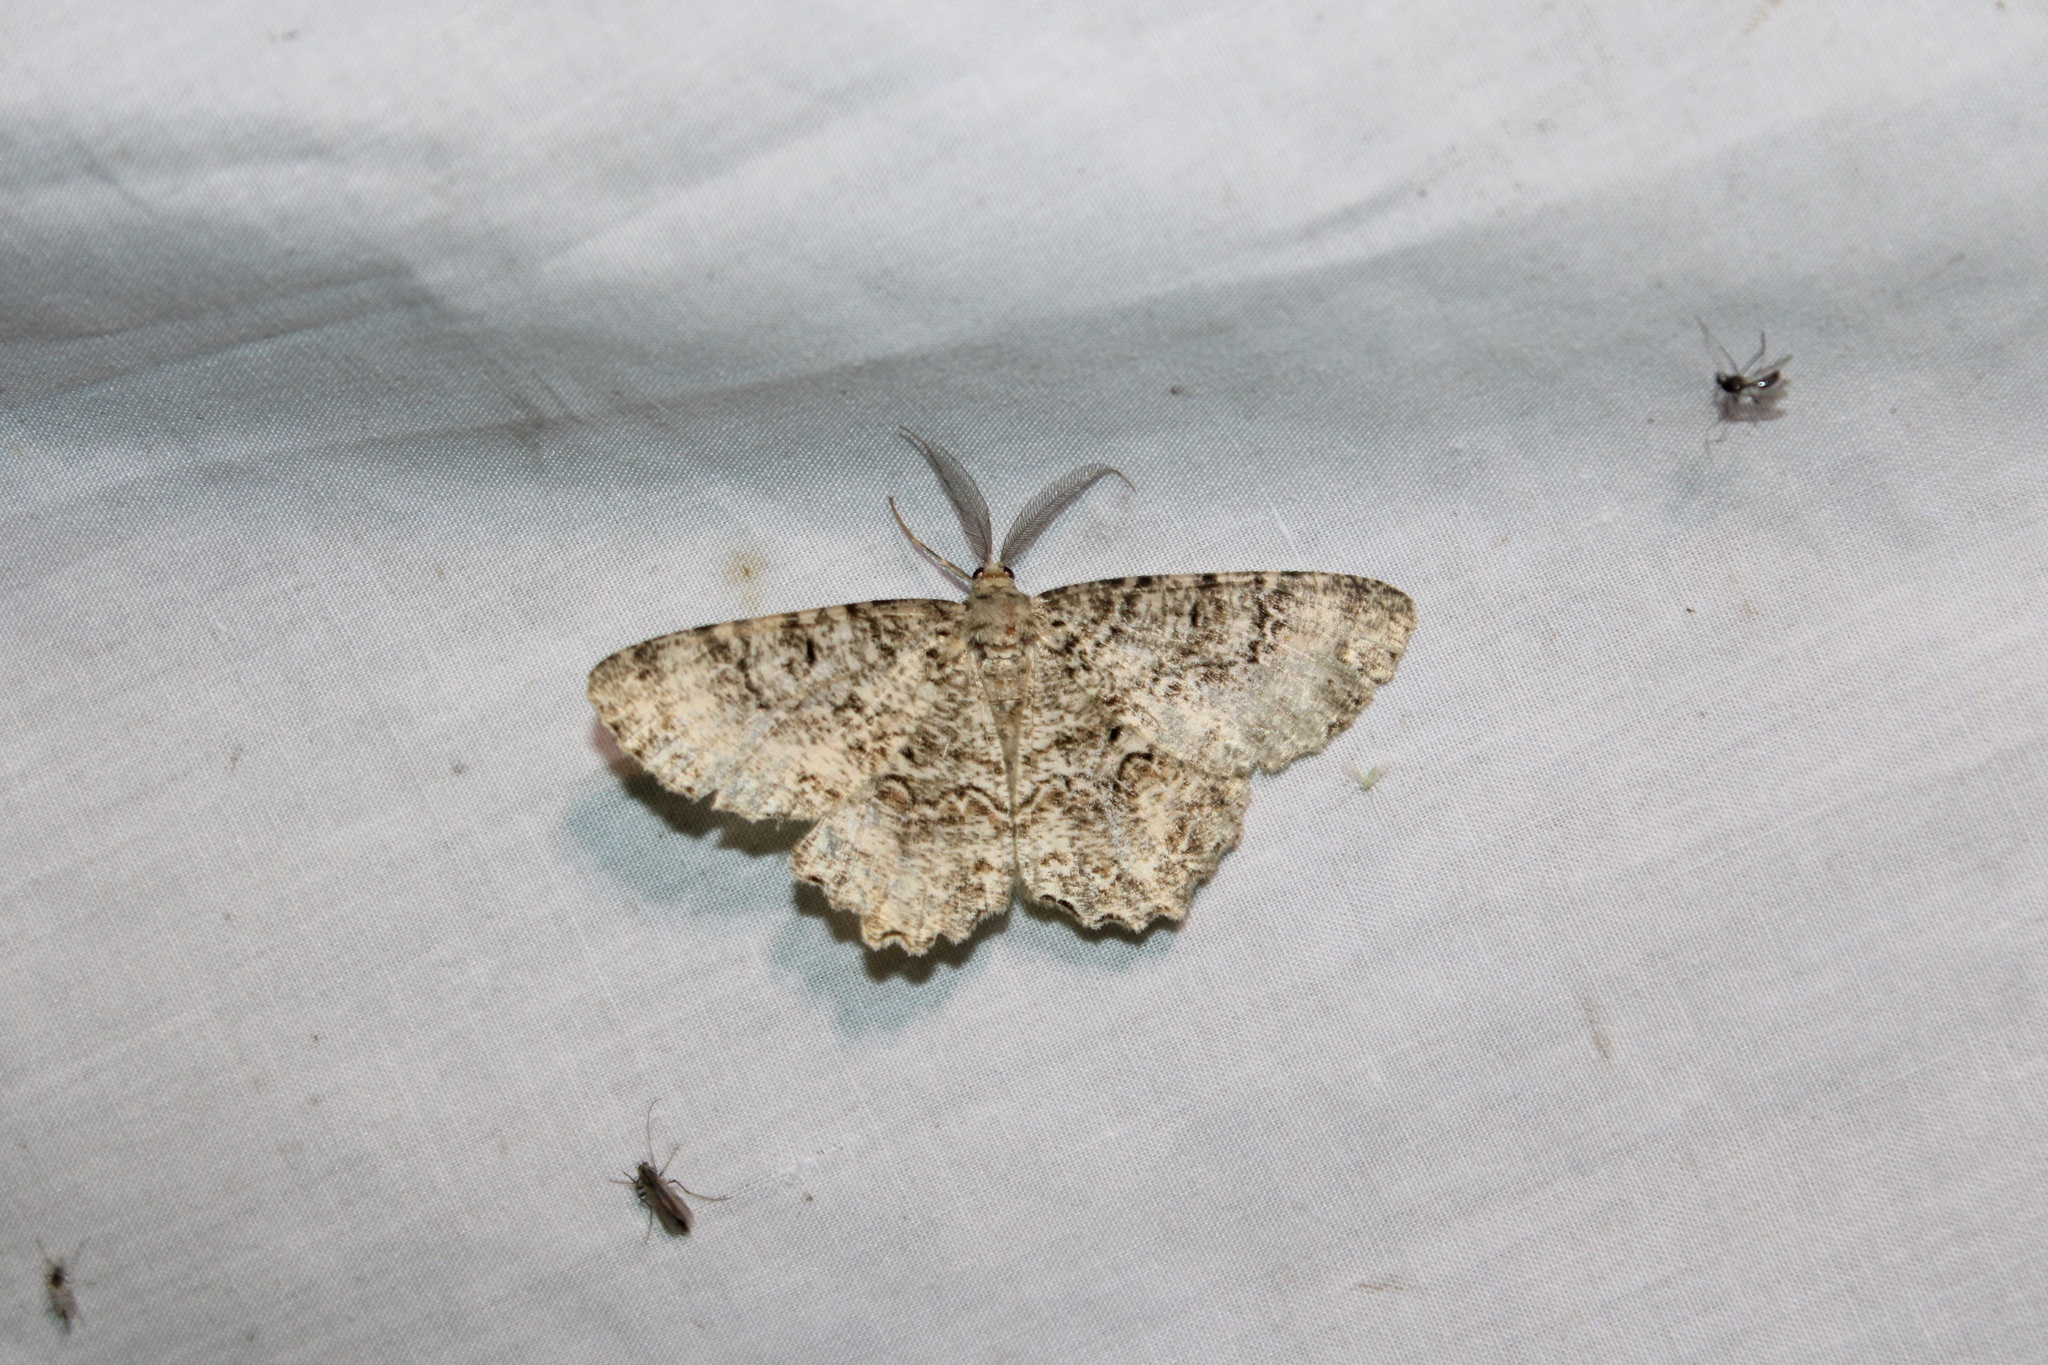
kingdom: Animalia
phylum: Arthropoda
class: Insecta
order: Lepidoptera
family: Geometridae
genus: Epimecis
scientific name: Epimecis hortaria
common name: Tulip-tree beauty
